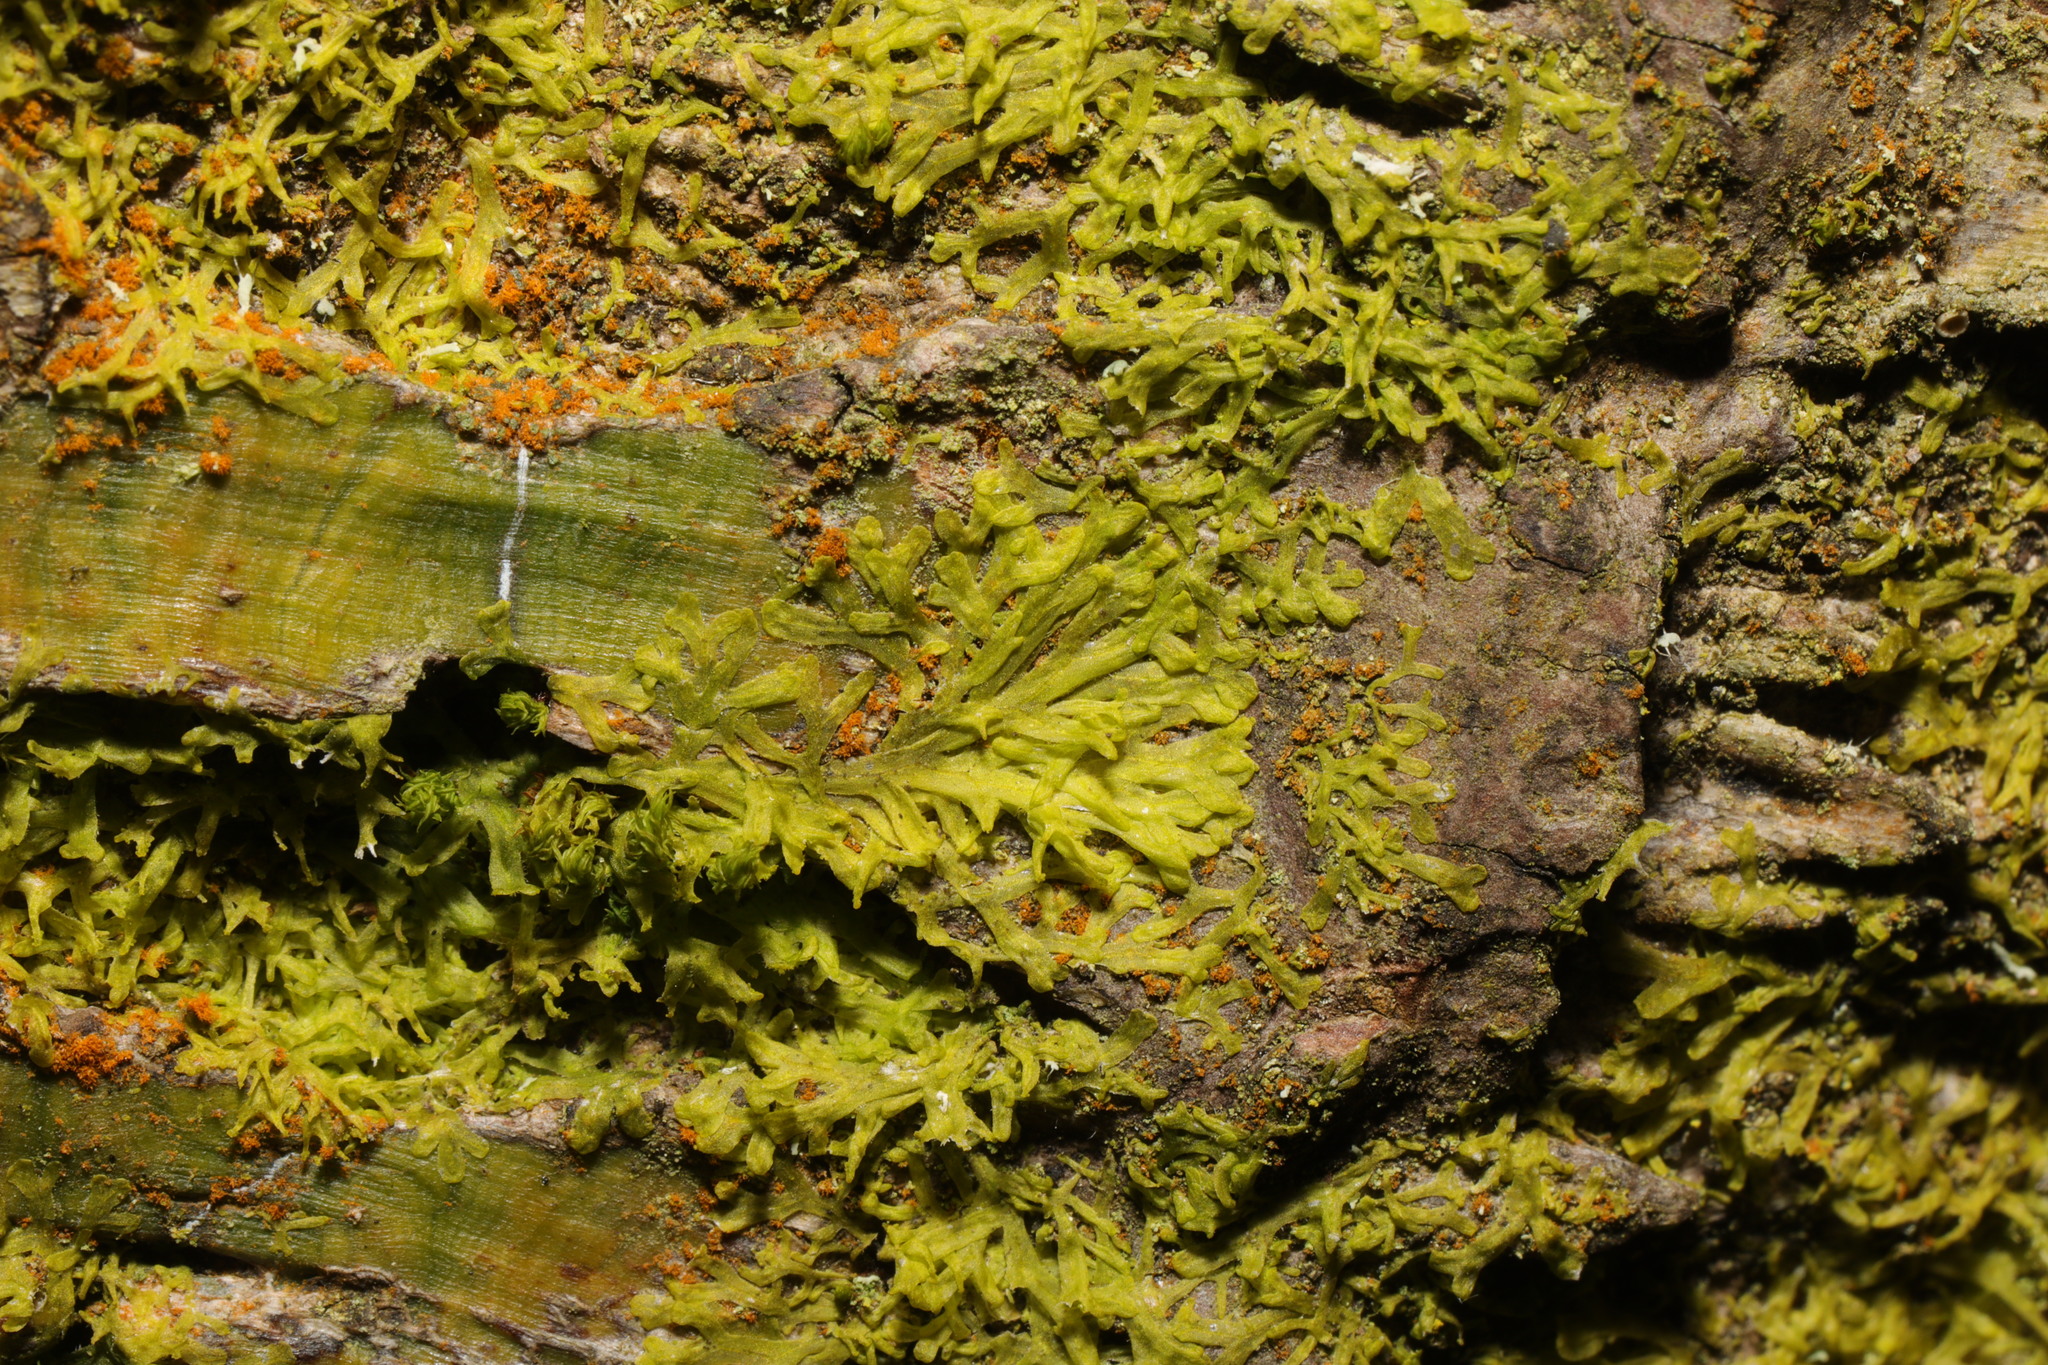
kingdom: Plantae
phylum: Marchantiophyta
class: Jungermanniopsida
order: Metzgeriales
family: Metzgeriaceae
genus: Metzgeria
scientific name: Metzgeria violacea
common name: Blueish veilwort
